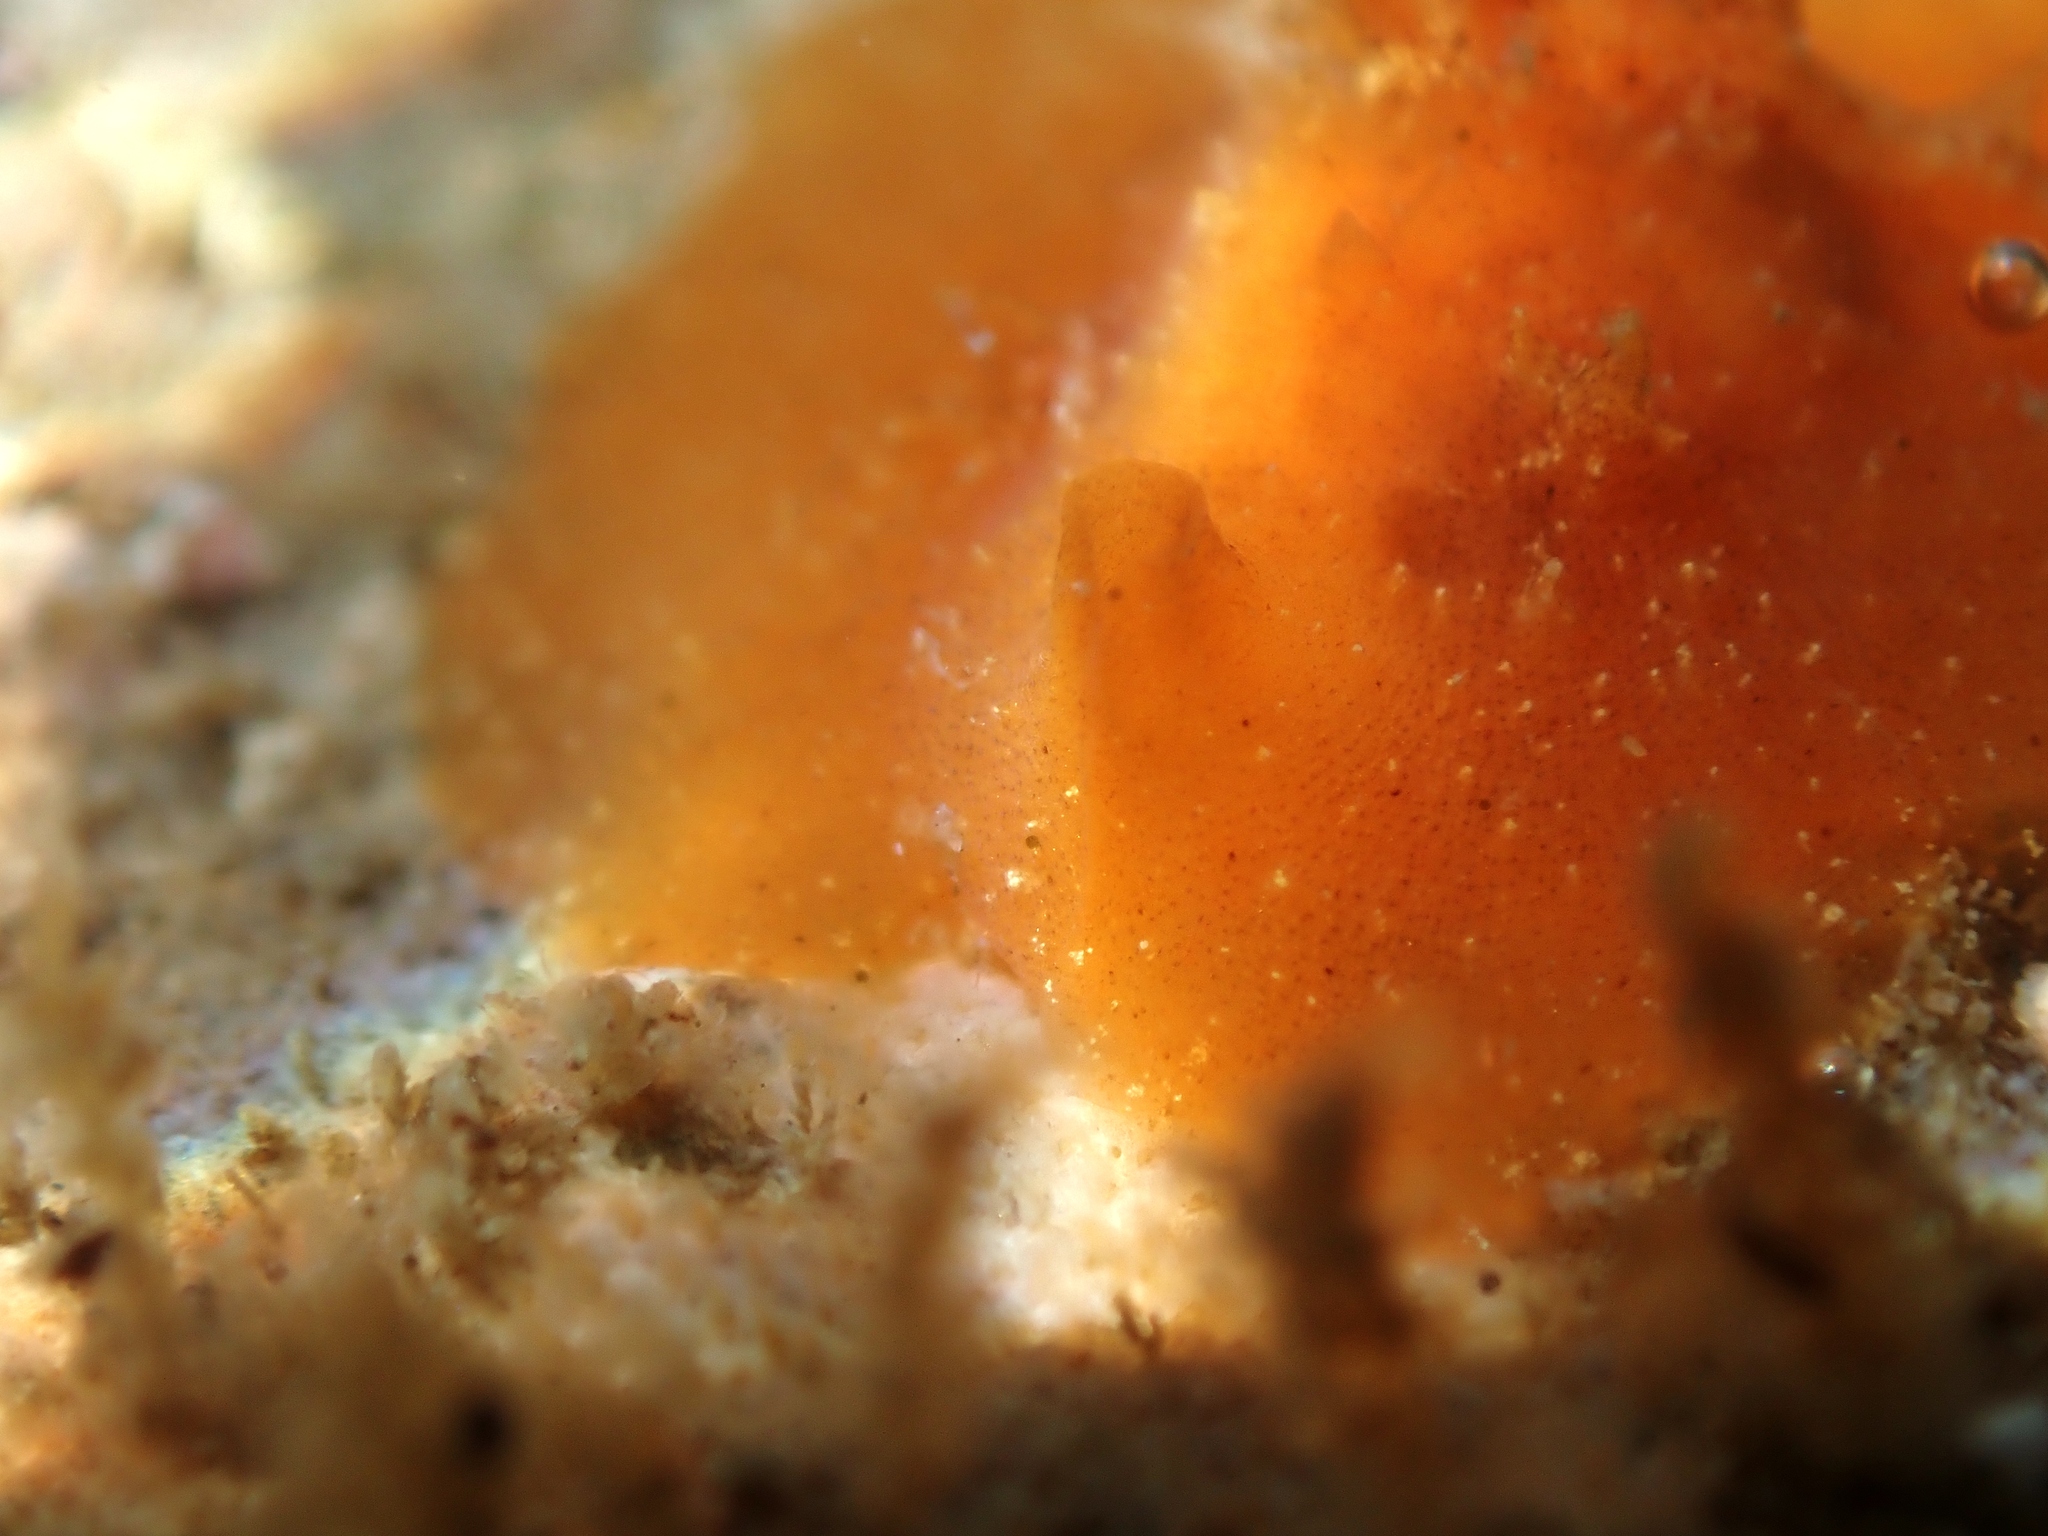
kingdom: Animalia
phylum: Mollusca
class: Gastropoda
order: Littorinimorpha
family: Velutinidae
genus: Lamellaria
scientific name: Lamellaria ophione
